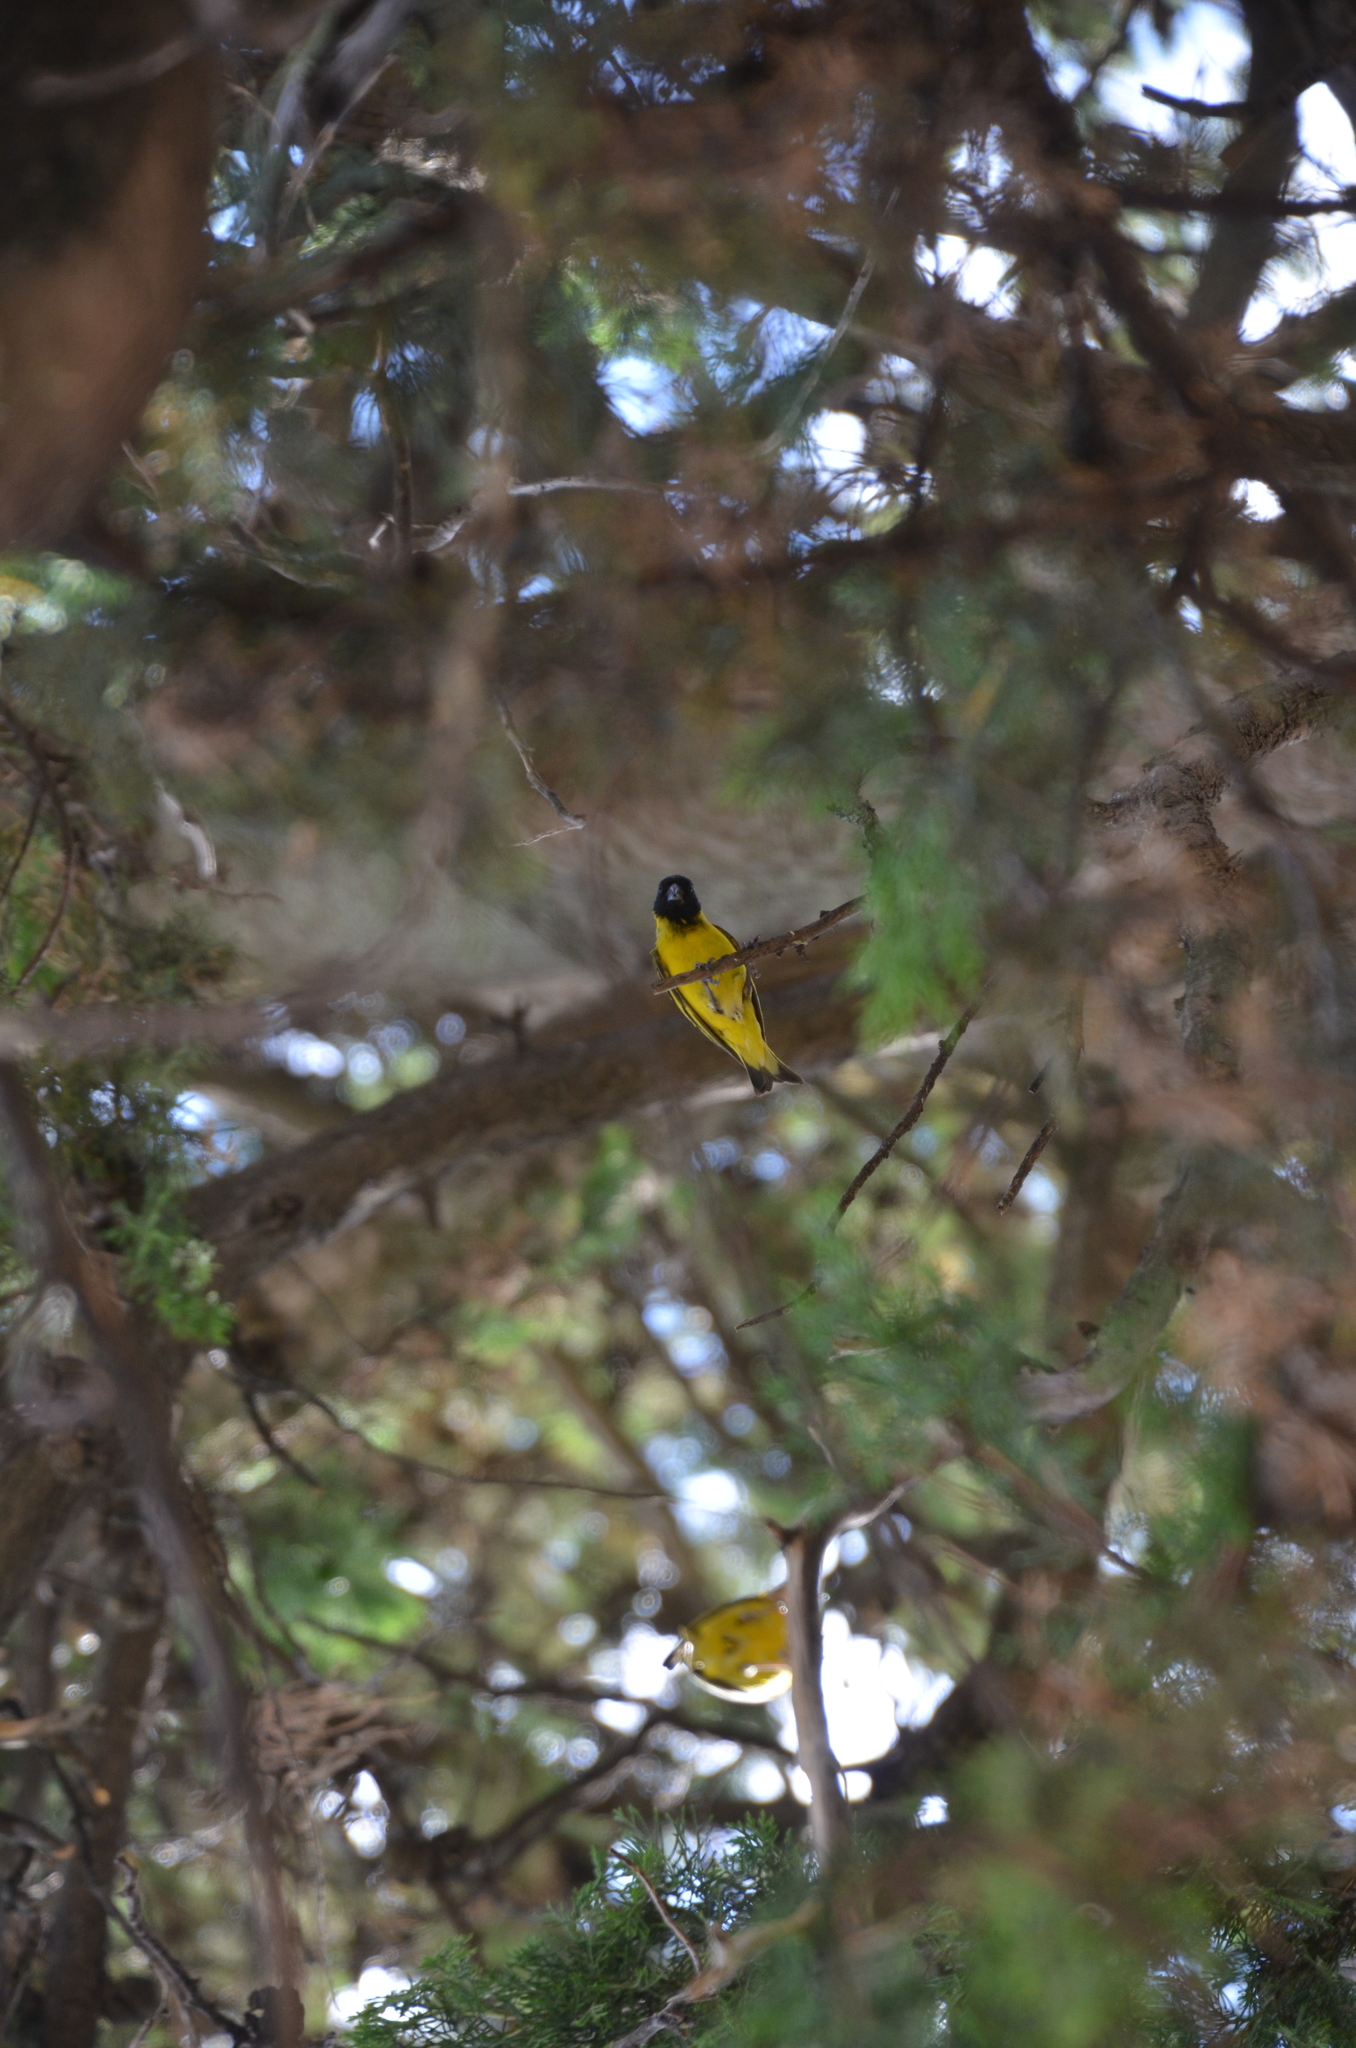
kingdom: Animalia
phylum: Chordata
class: Aves
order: Passeriformes
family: Fringillidae
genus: Spinus
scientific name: Spinus magellanicus
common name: Hooded siskin
